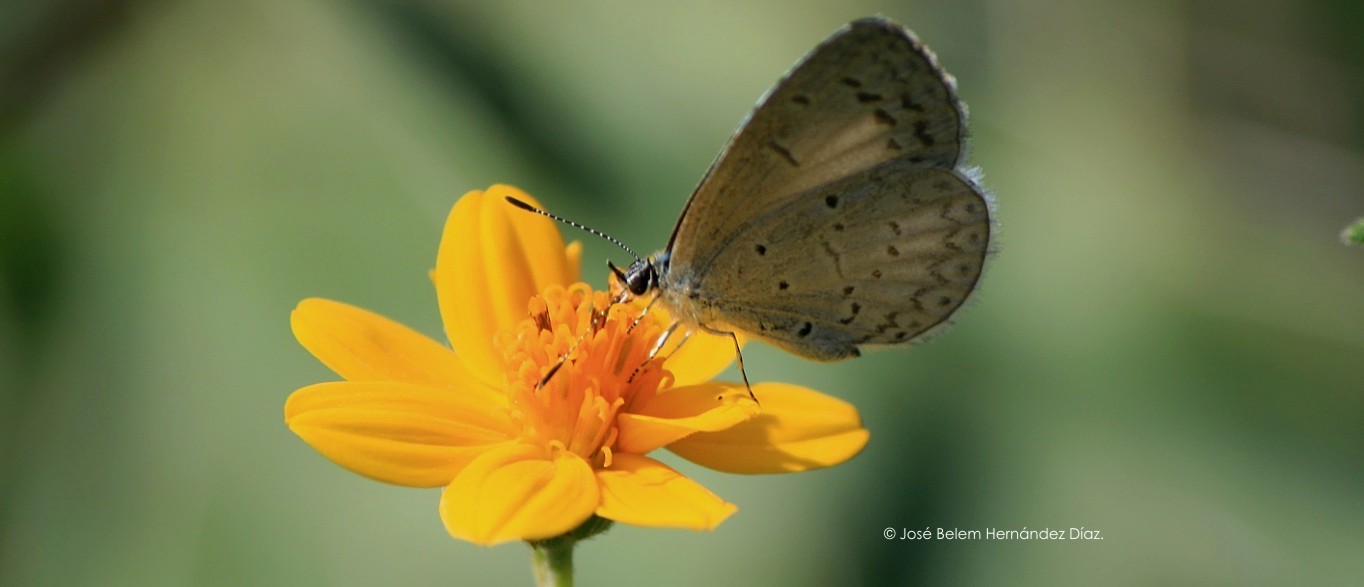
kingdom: Animalia
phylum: Arthropoda
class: Insecta
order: Lepidoptera
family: Lycaenidae
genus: Celastrina
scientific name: Celastrina ladon
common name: Spring azure
